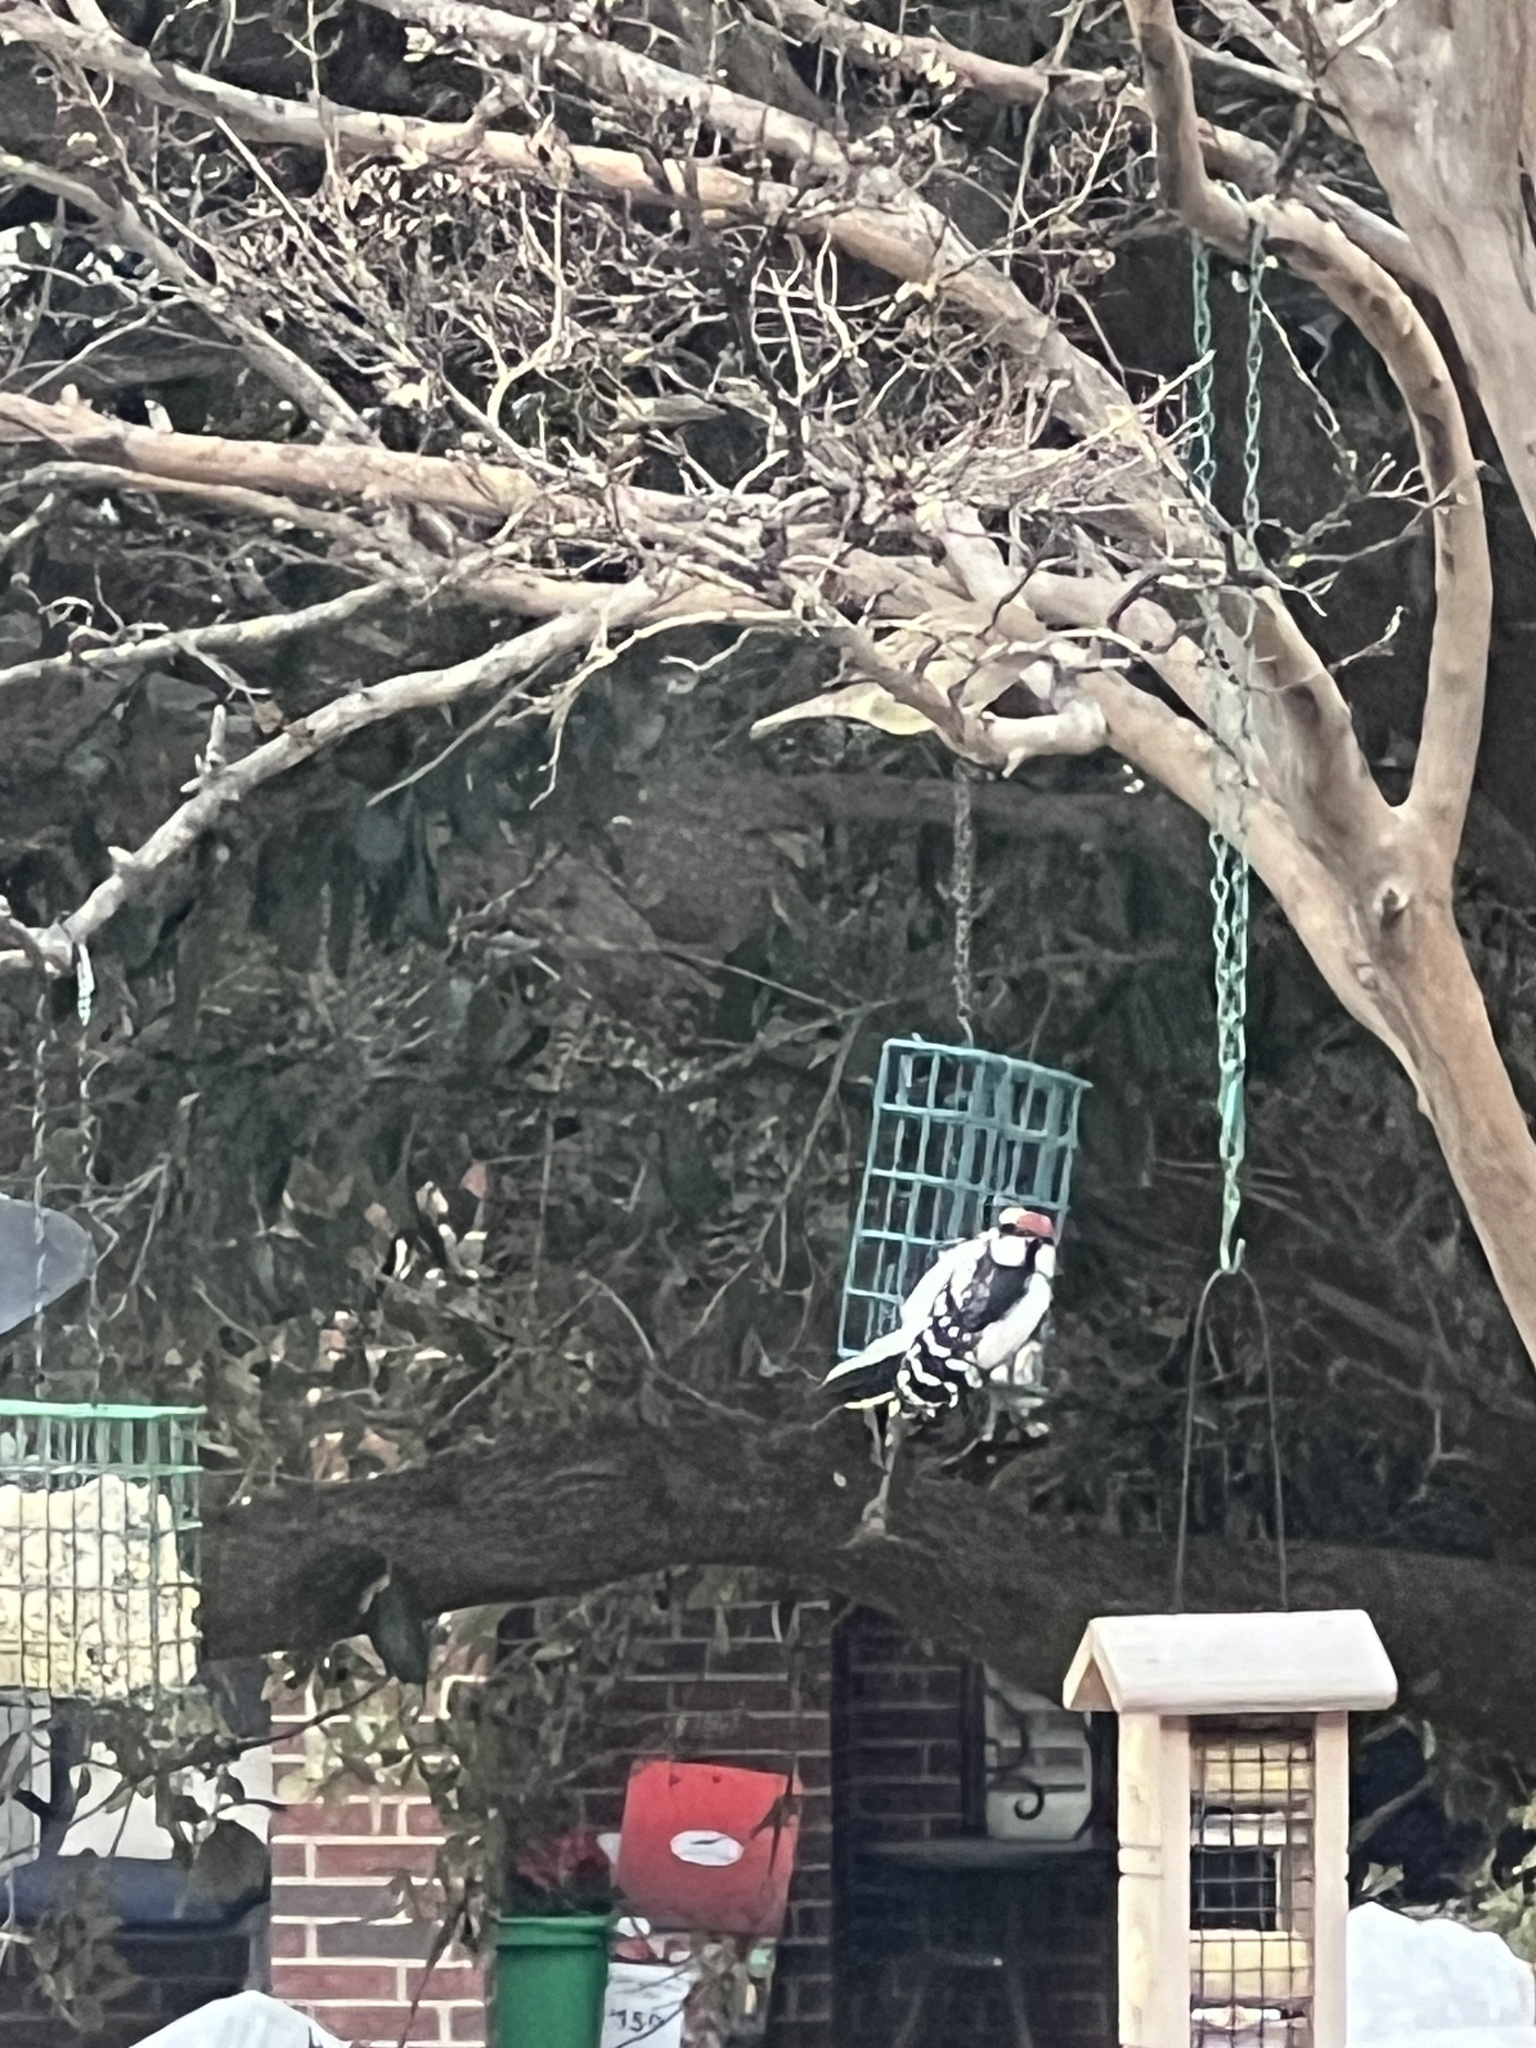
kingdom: Animalia
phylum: Chordata
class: Aves
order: Piciformes
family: Picidae
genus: Dryobates
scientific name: Dryobates pubescens
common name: Downy woodpecker
